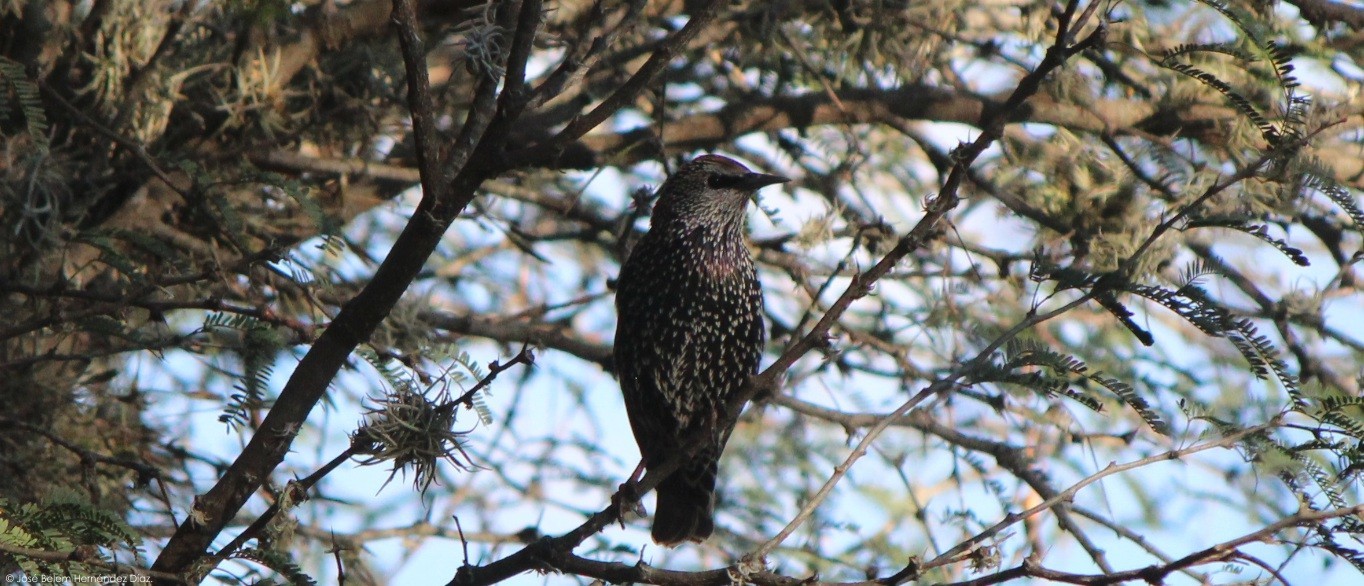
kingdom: Animalia
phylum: Chordata
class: Aves
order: Passeriformes
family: Sturnidae
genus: Sturnus
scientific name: Sturnus vulgaris
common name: Common starling
